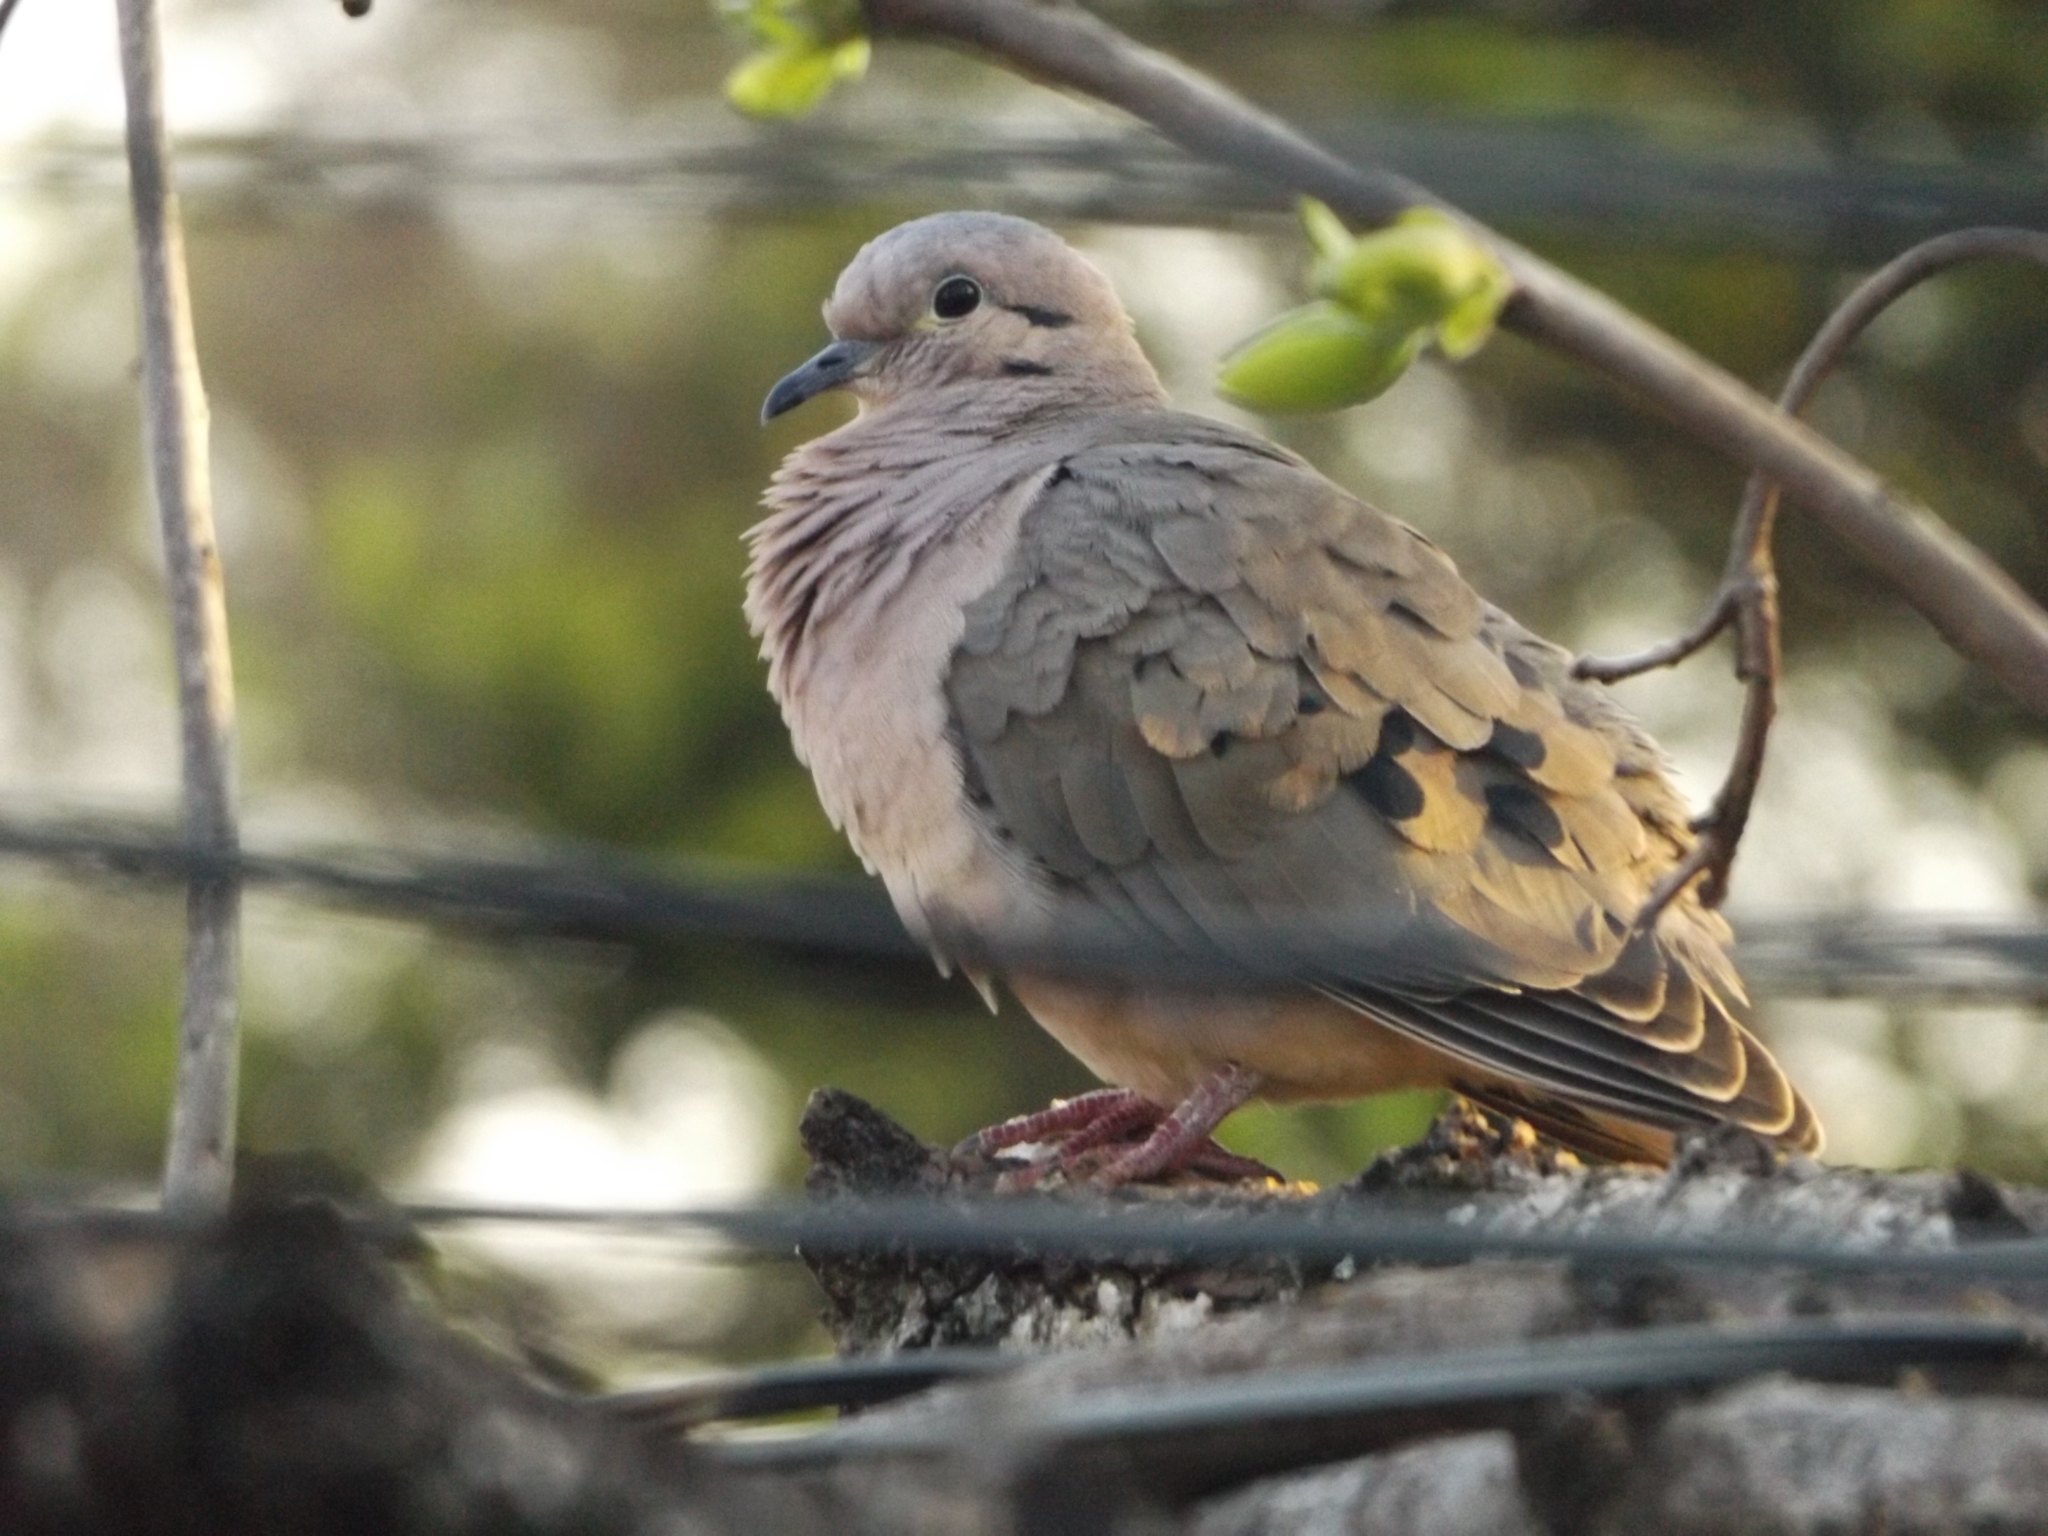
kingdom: Animalia
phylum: Chordata
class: Aves
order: Columbiformes
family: Columbidae
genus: Zenaida
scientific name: Zenaida auriculata
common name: Eared dove
